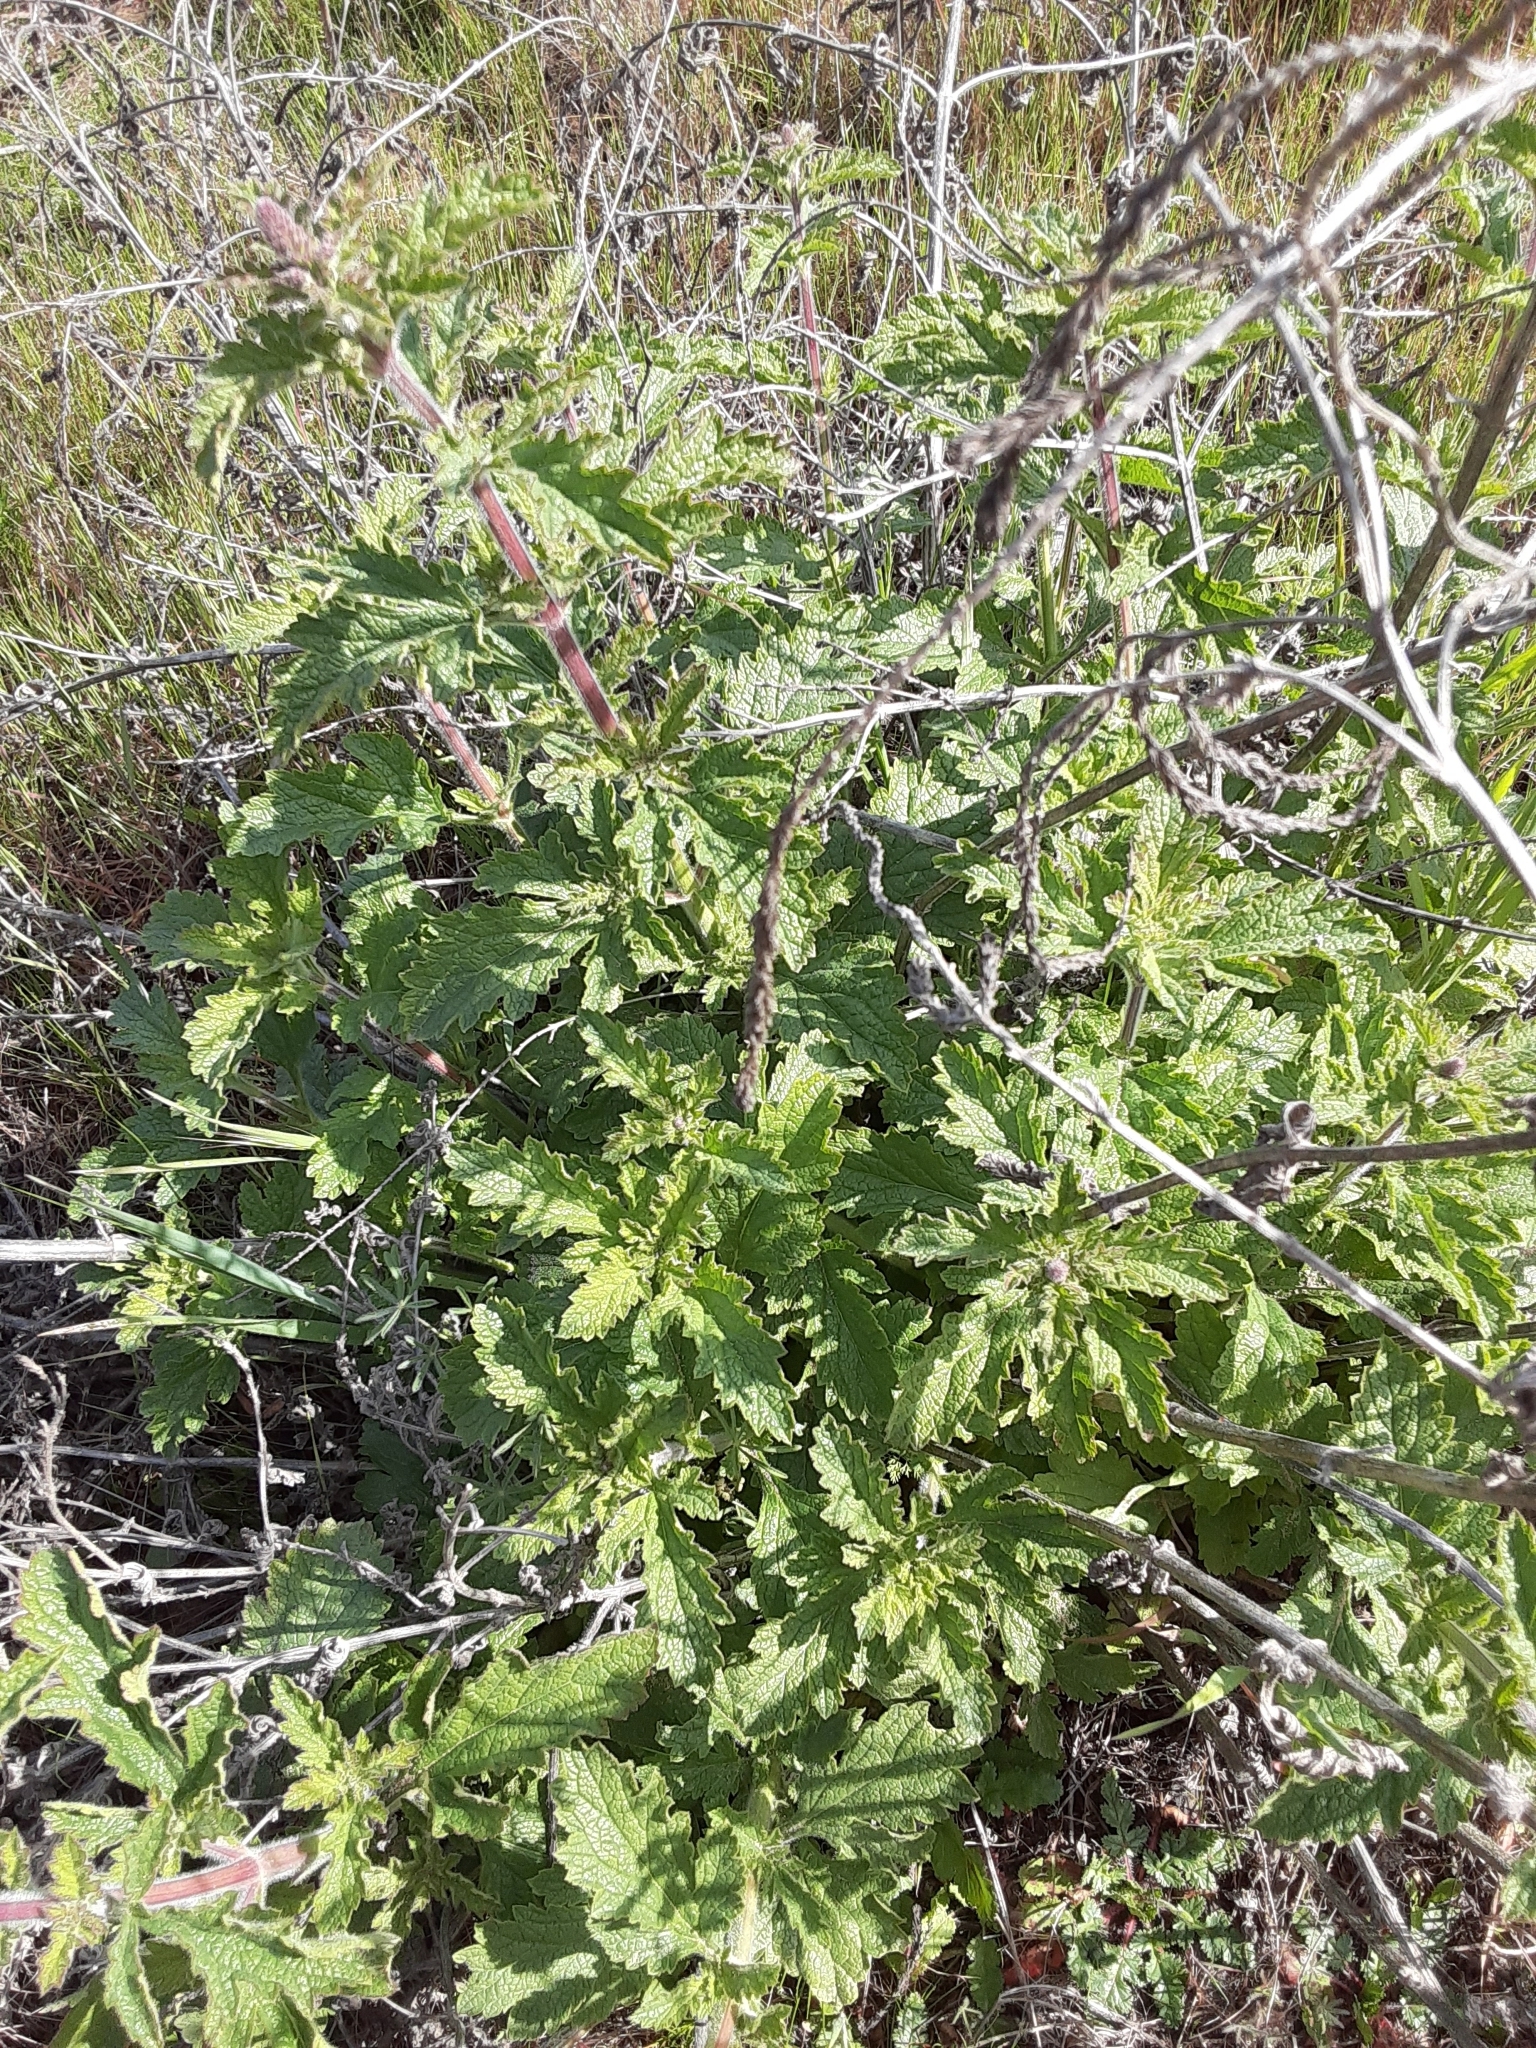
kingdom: Plantae
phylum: Tracheophyta
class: Magnoliopsida
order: Lamiales
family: Verbenaceae
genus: Verbena
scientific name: Verbena lasiostachys
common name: Vervain
